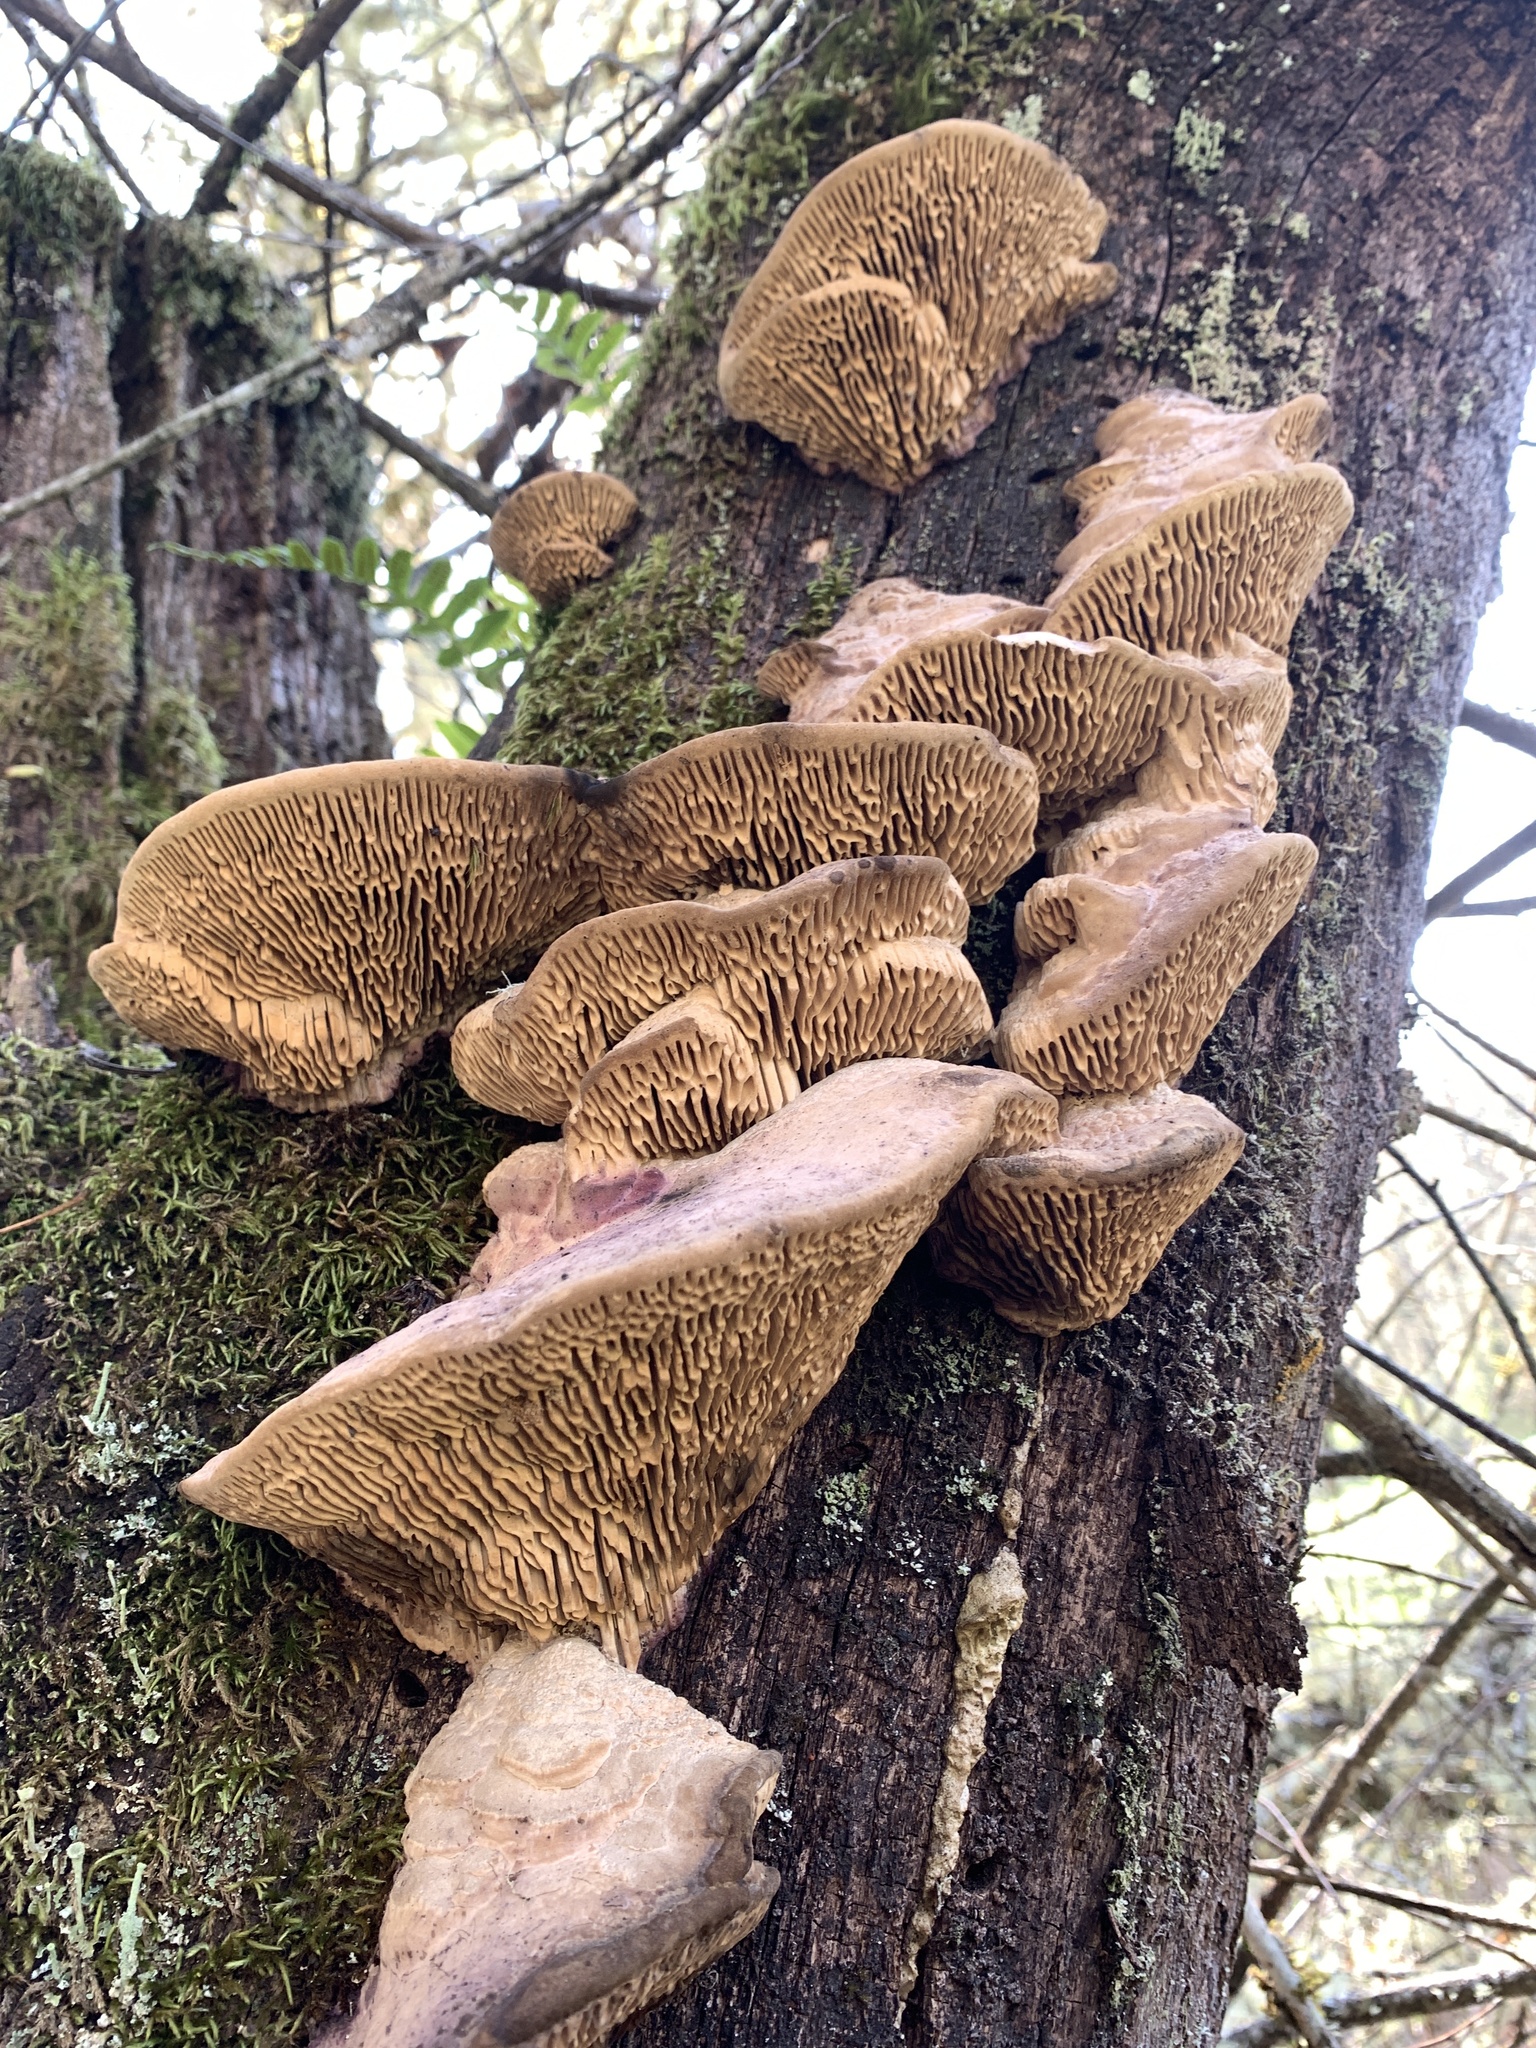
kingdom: Fungi
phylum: Basidiomycota
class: Agaricomycetes
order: Polyporales
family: Fomitopsidaceae
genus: Fomitopsis
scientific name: Fomitopsis
